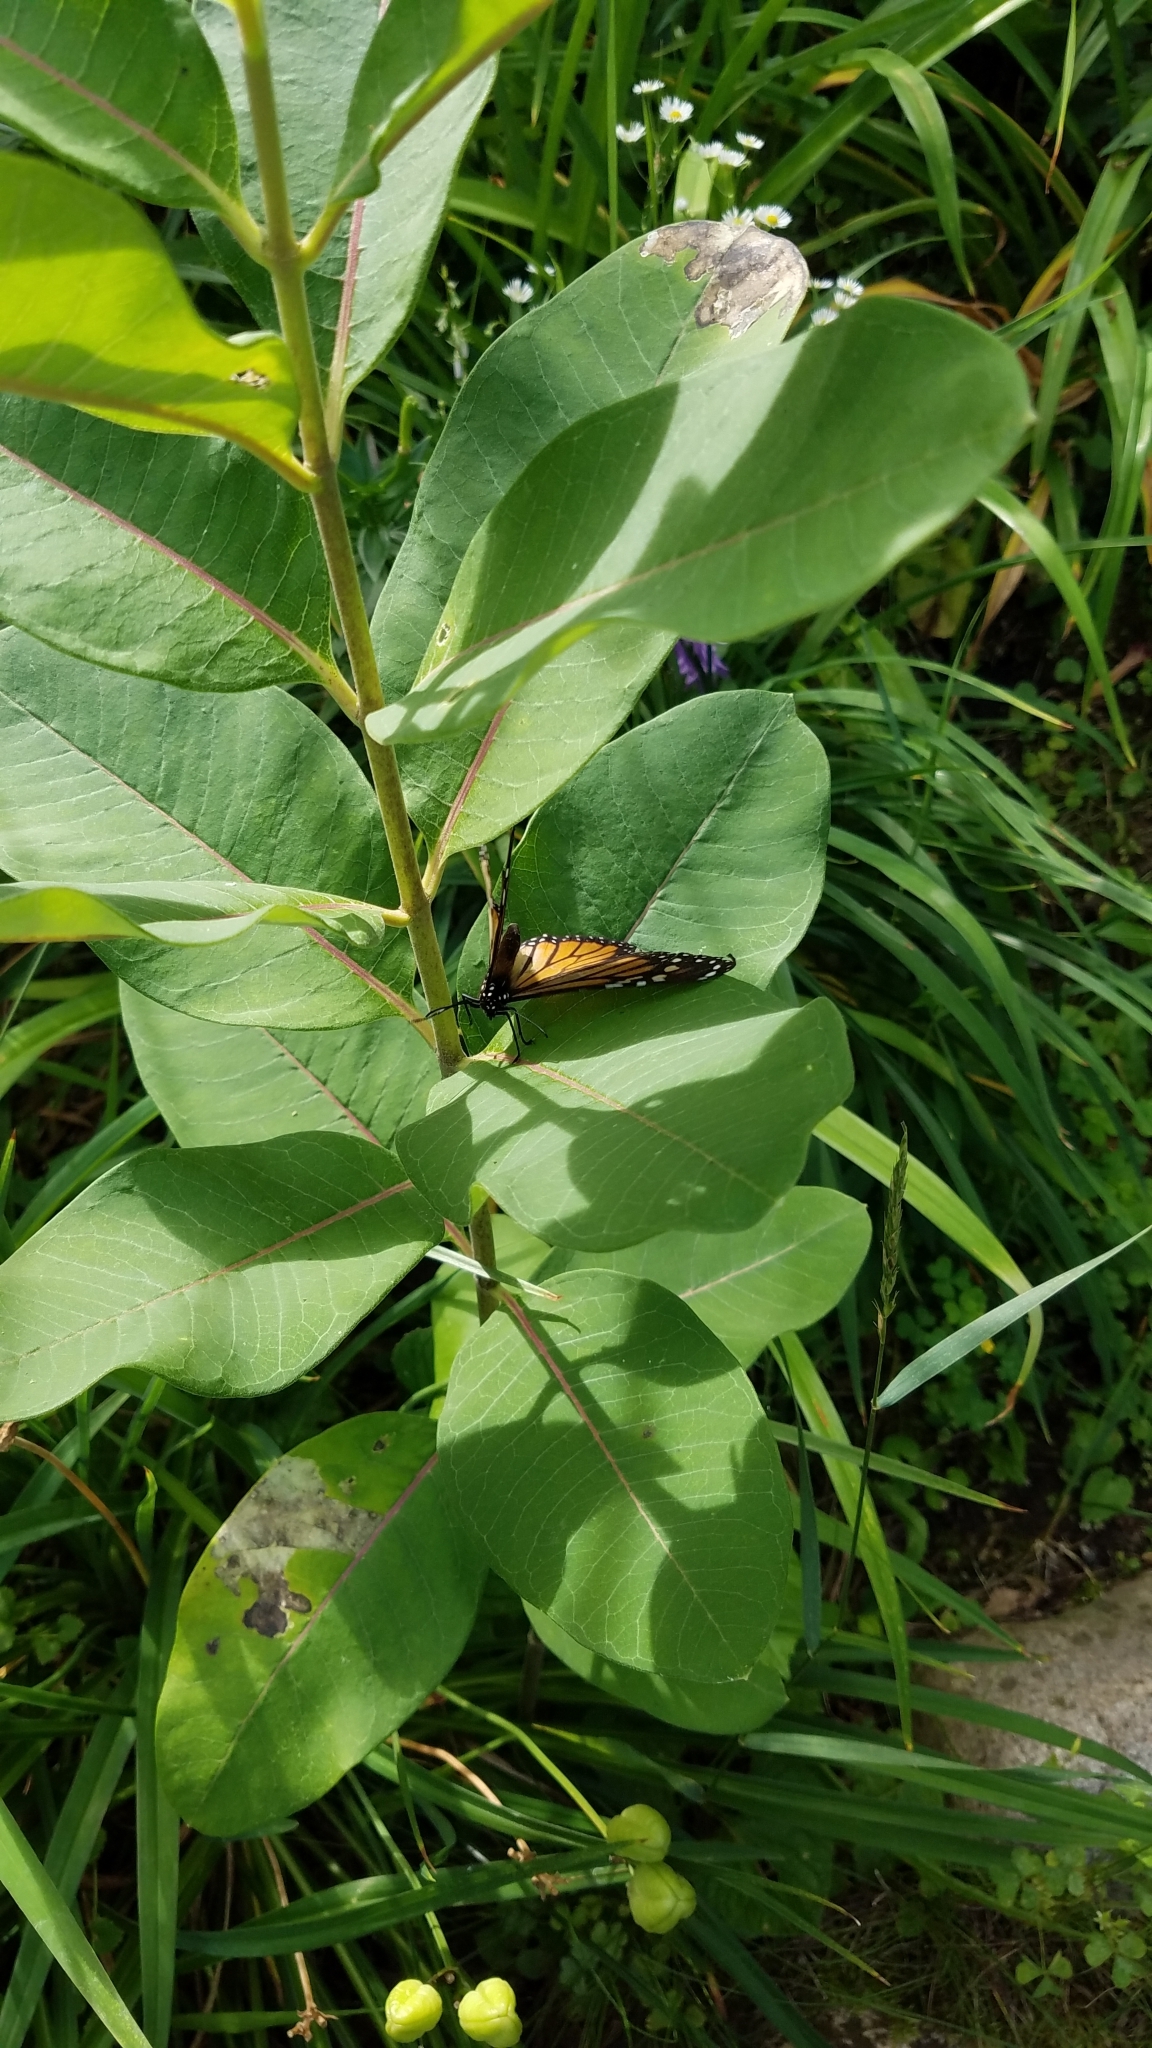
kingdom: Animalia
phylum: Arthropoda
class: Insecta
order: Lepidoptera
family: Nymphalidae
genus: Danaus
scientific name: Danaus plexippus
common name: Monarch
